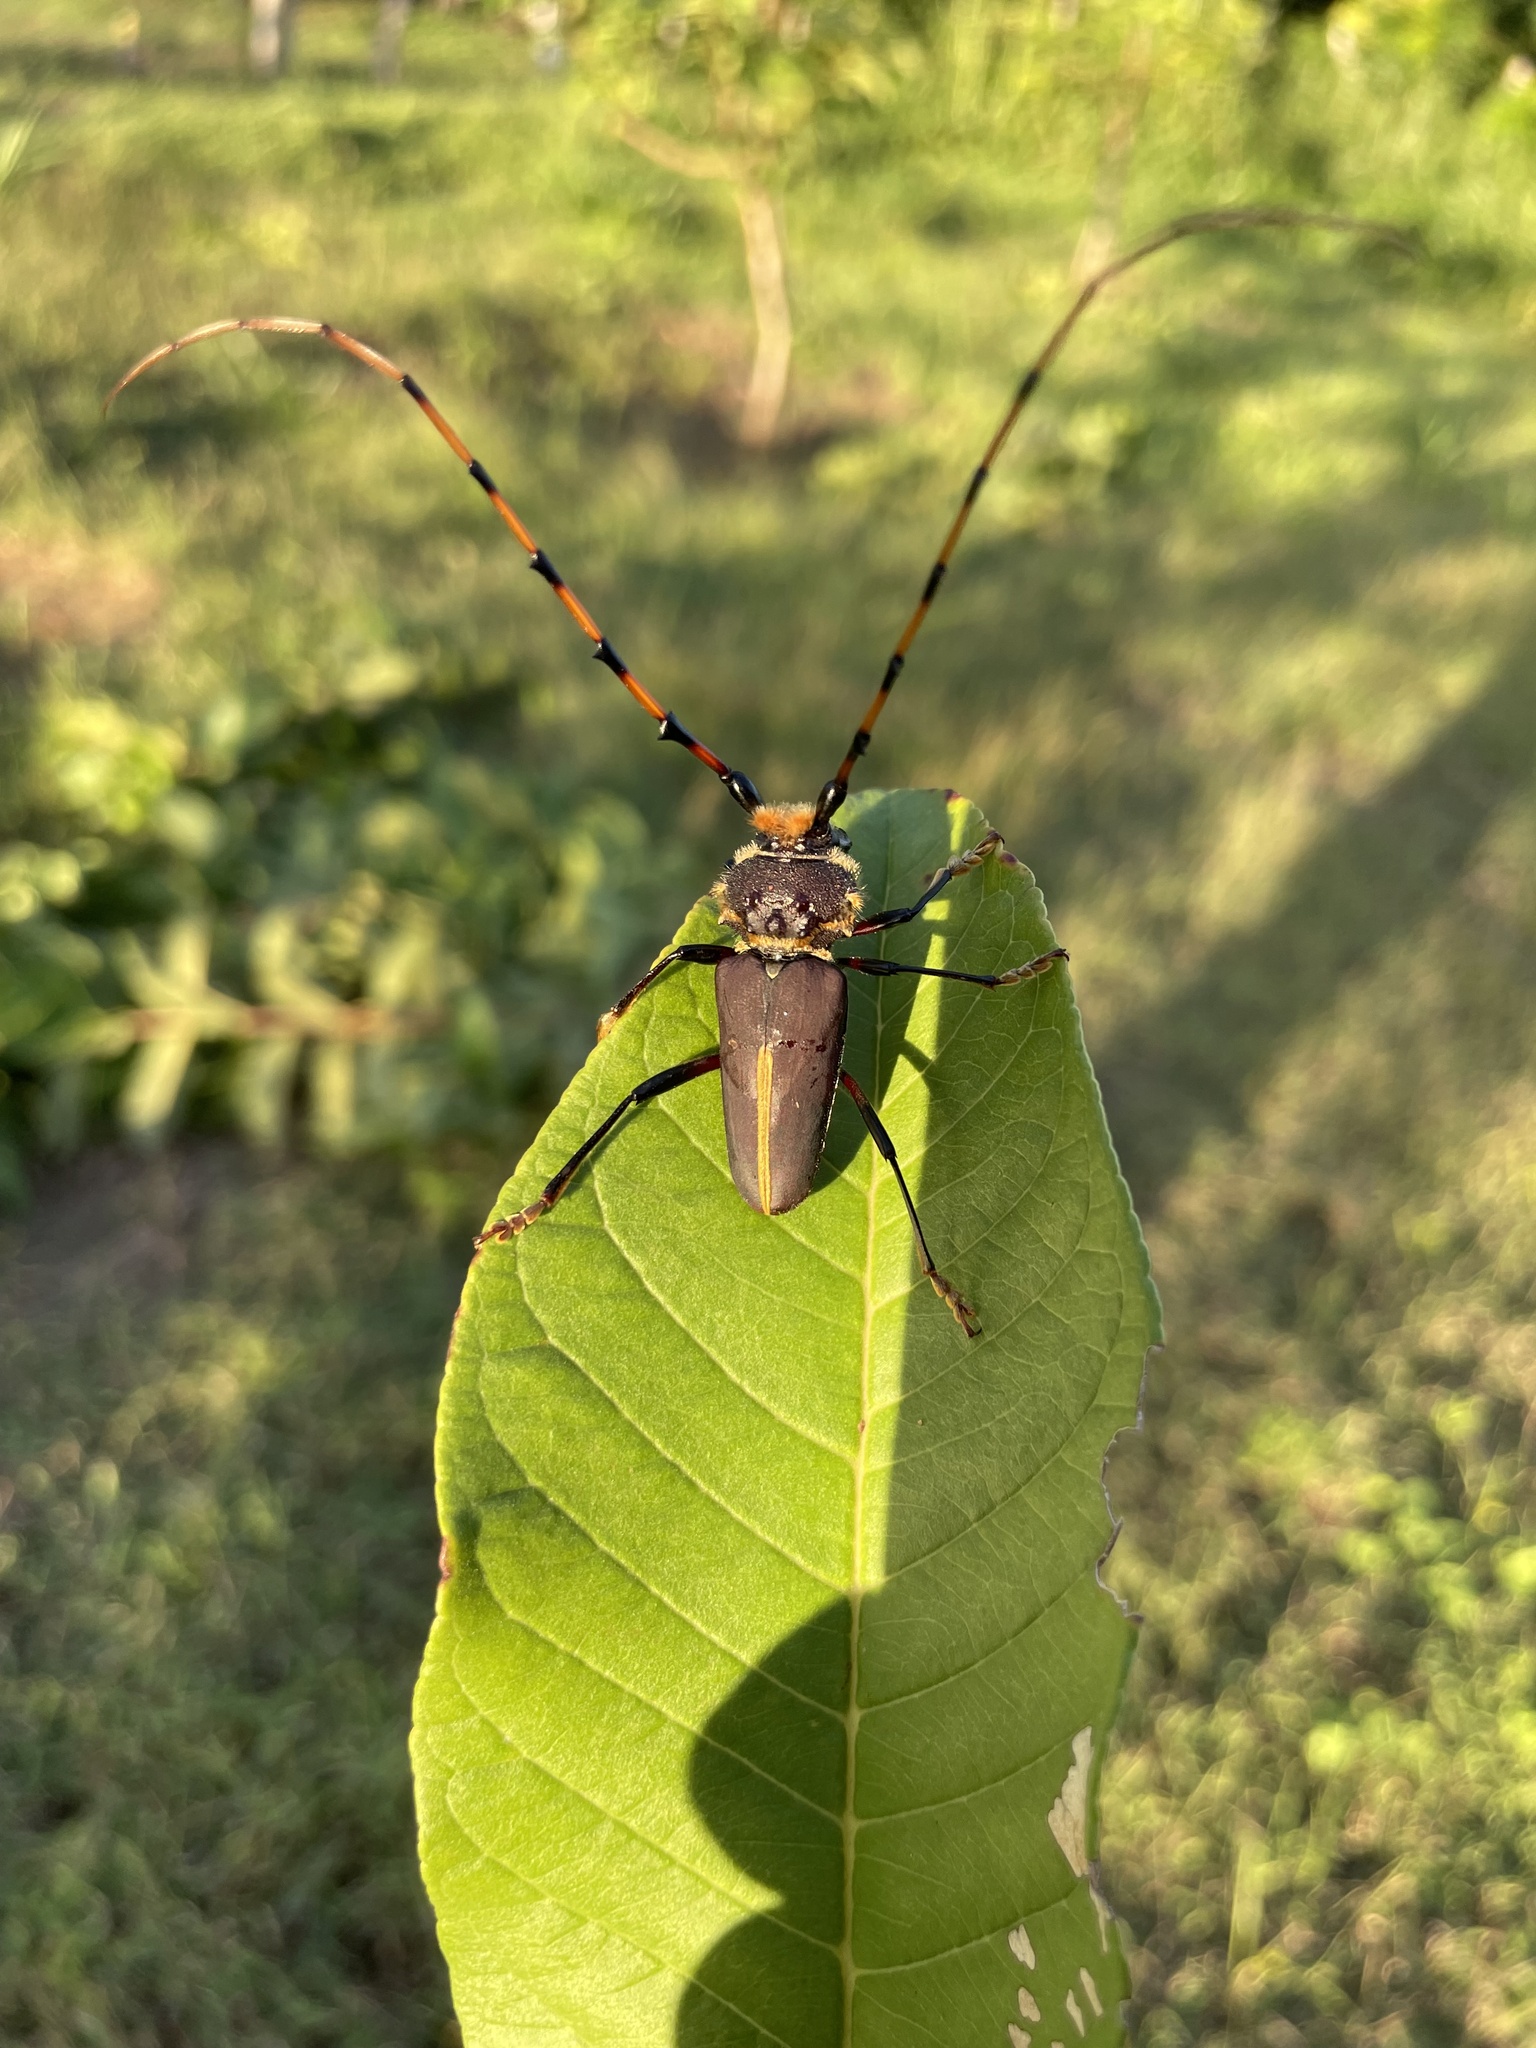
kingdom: Animalia
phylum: Arthropoda
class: Insecta
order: Coleoptera
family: Cerambycidae
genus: Dorcacerus
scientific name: Dorcacerus barbatus
